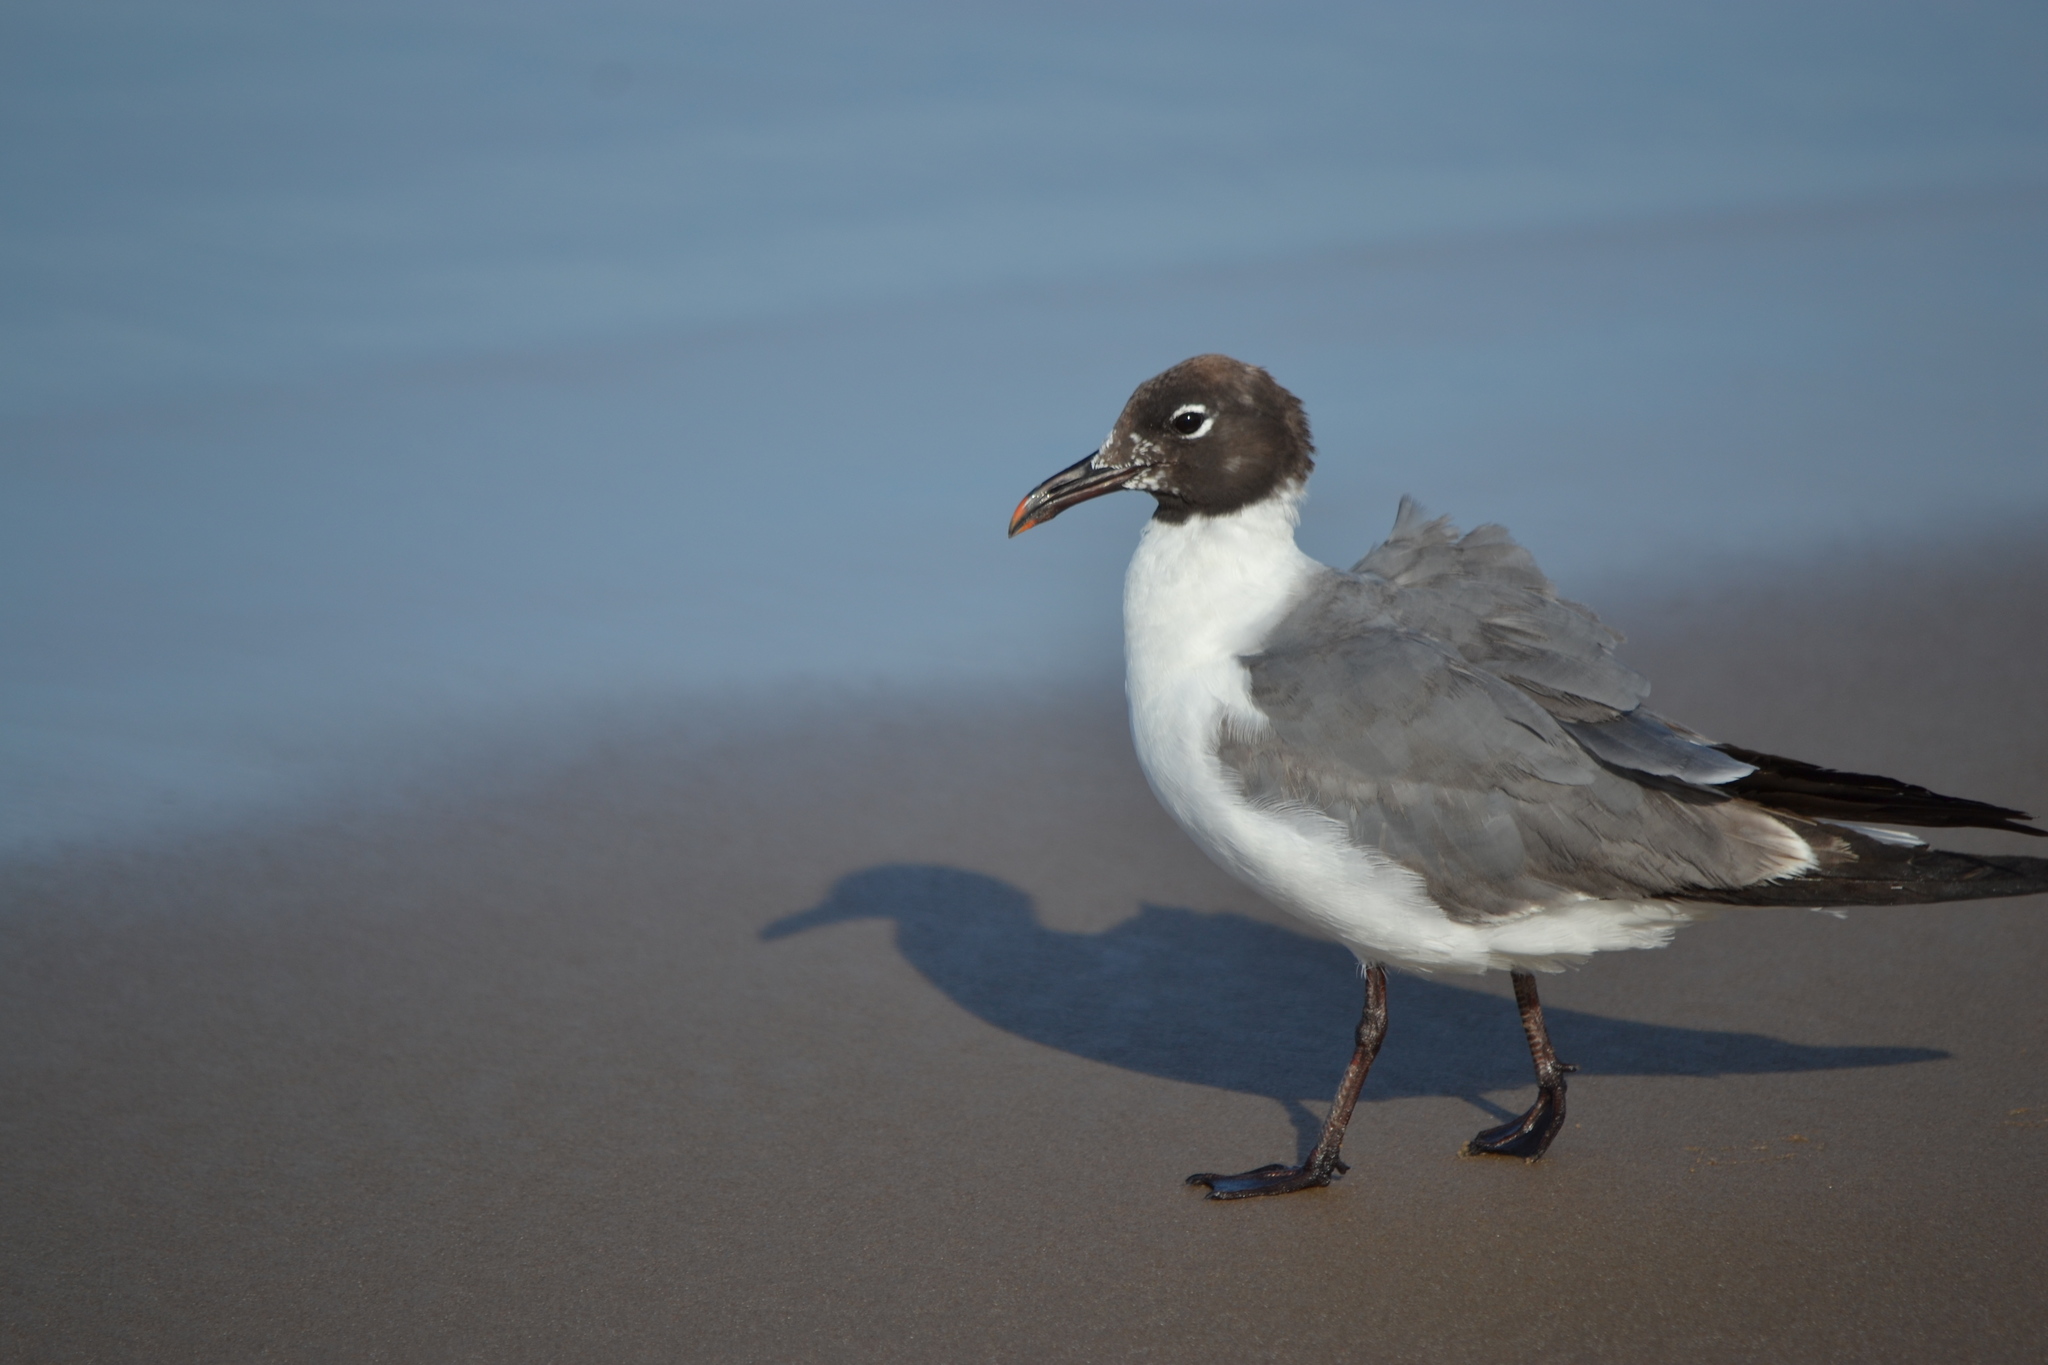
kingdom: Animalia
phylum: Chordata
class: Aves
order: Charadriiformes
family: Laridae
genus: Leucophaeus
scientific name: Leucophaeus atricilla
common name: Laughing gull
